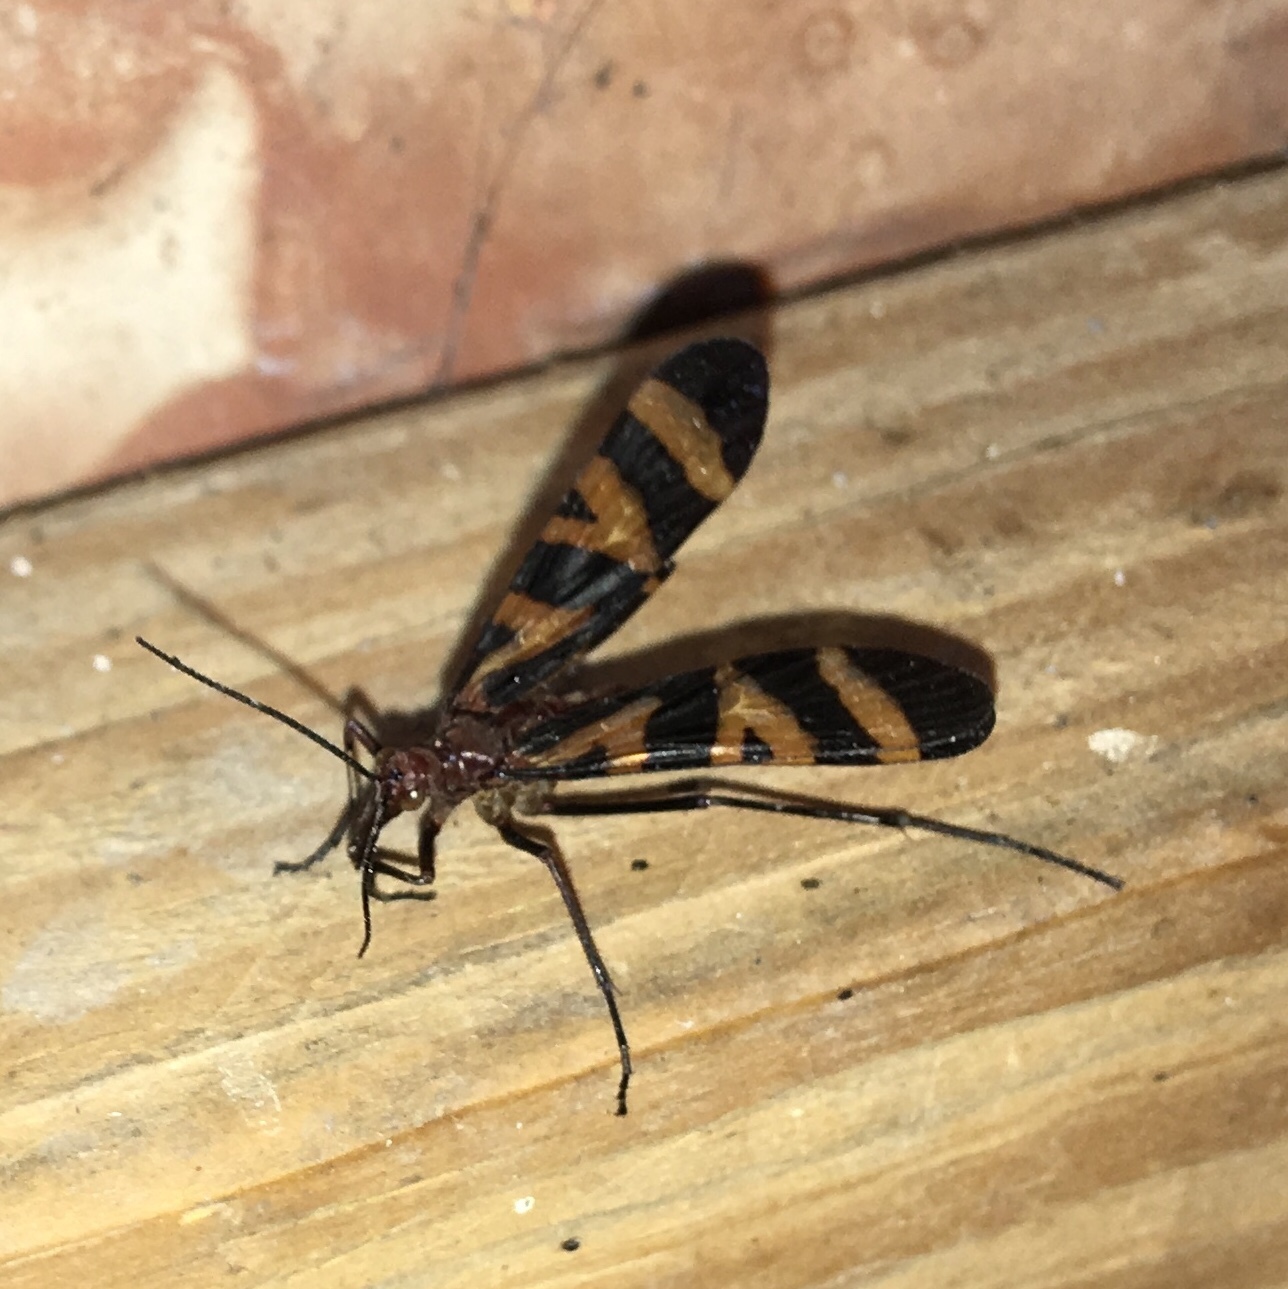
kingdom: Animalia
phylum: Arthropoda
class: Insecta
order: Mecoptera
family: Panorpidae
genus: Panorpa
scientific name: Panorpa nuptialis
